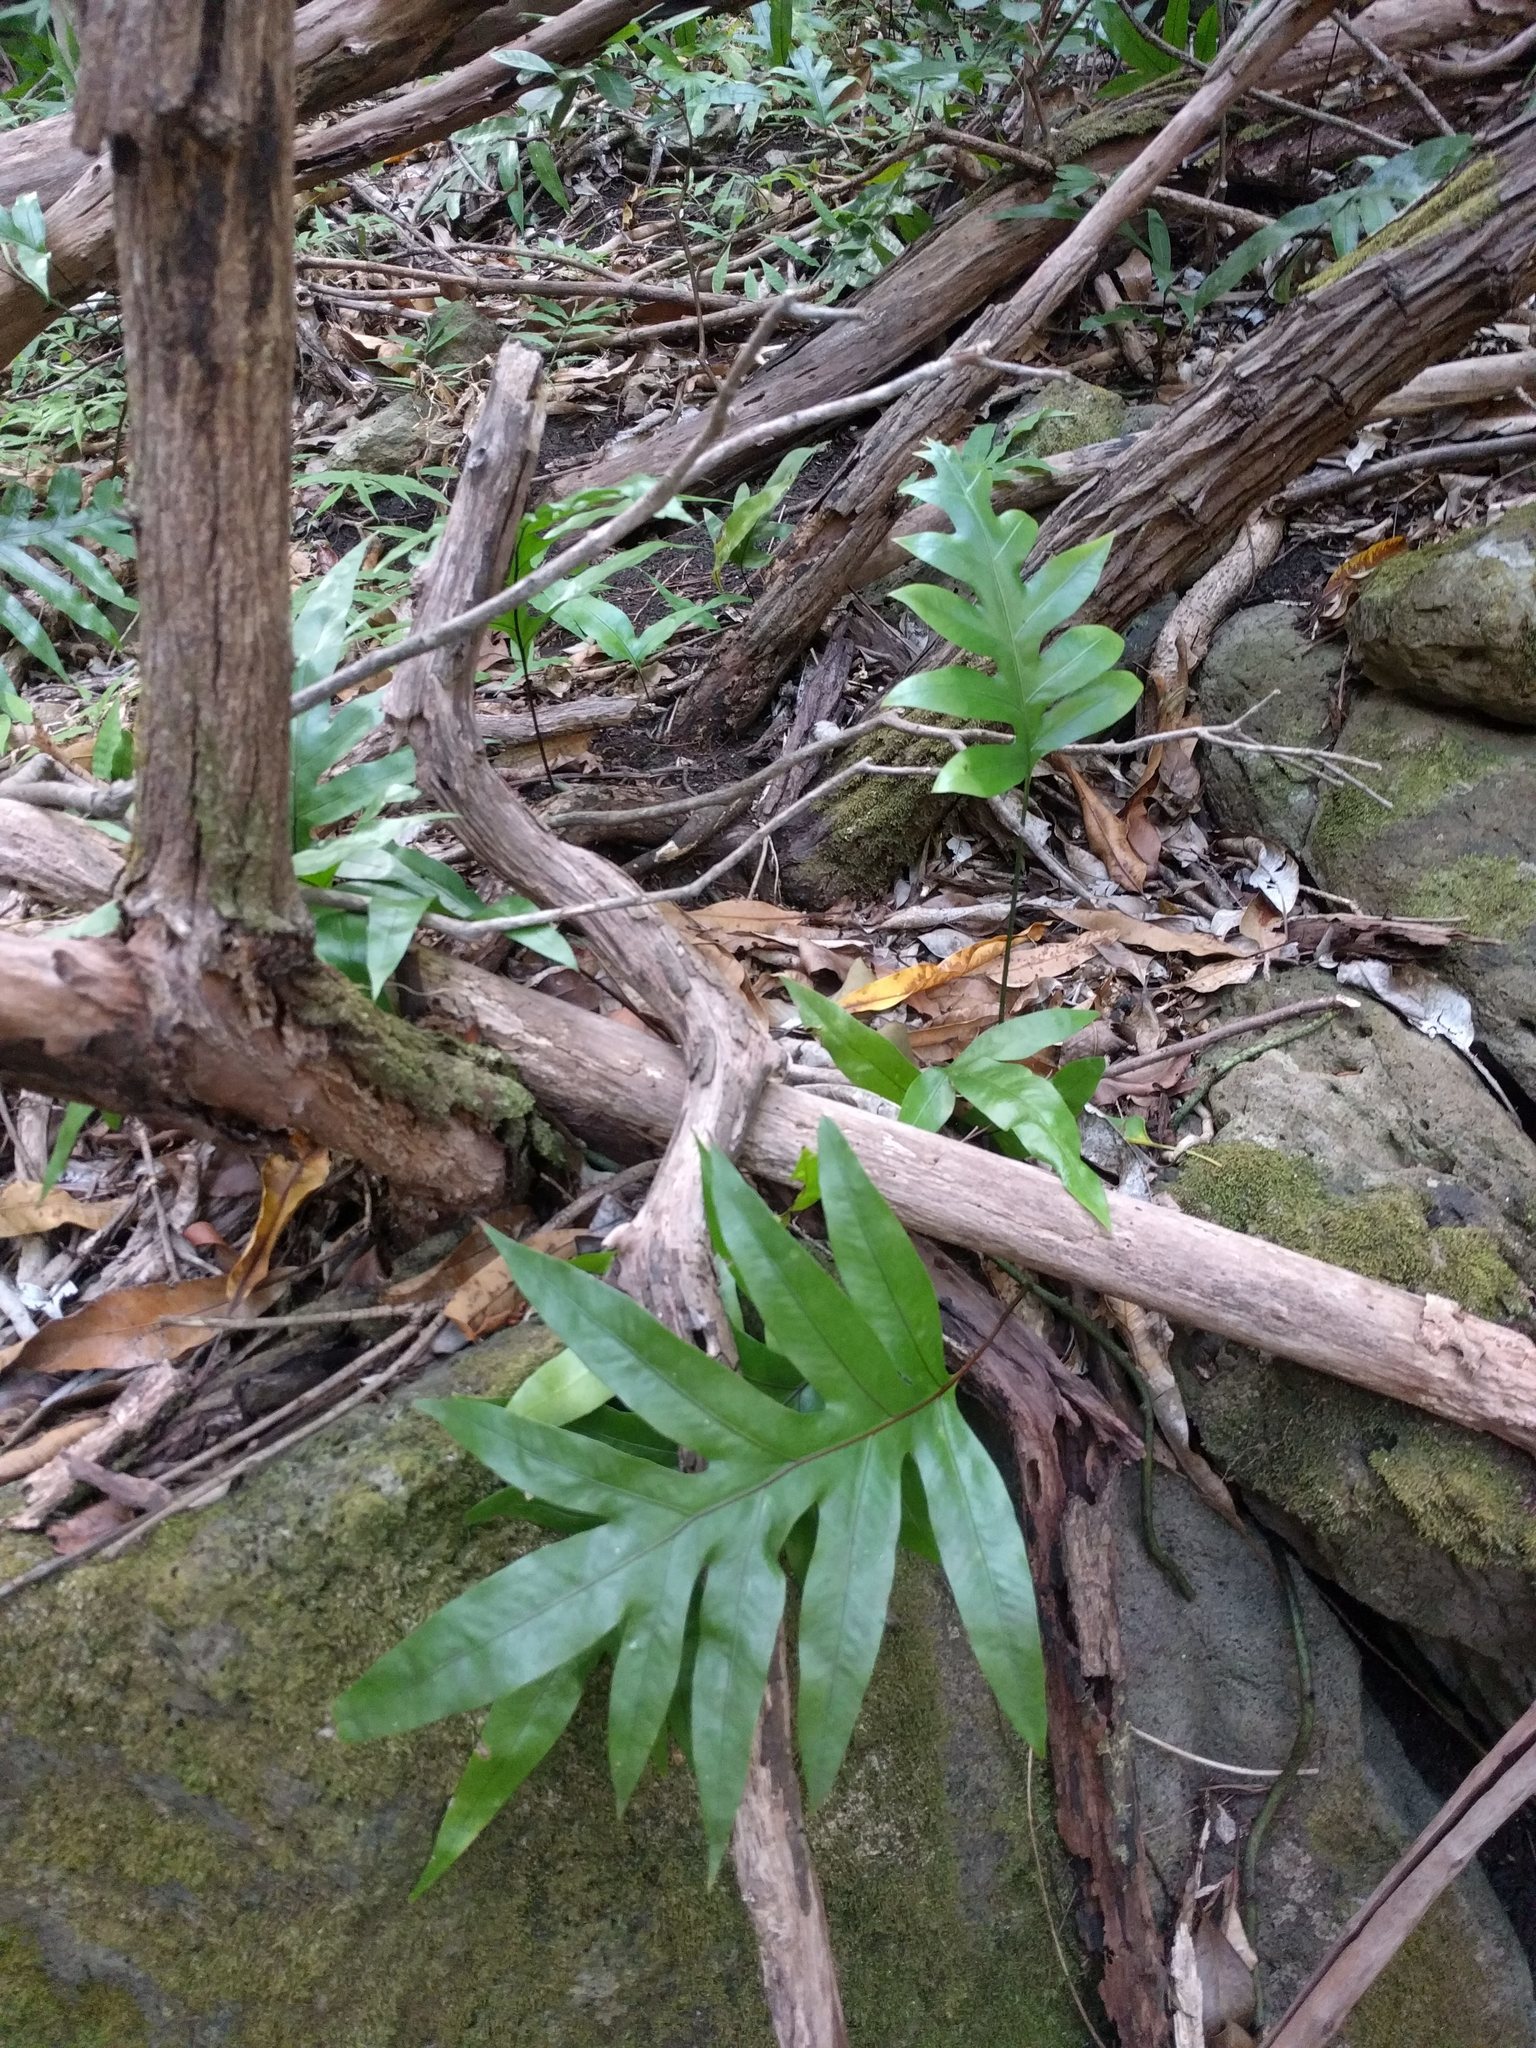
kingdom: Plantae
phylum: Tracheophyta
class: Polypodiopsida
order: Polypodiales
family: Polypodiaceae
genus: Microsorum
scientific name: Microsorum grossum
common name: Musk fern
